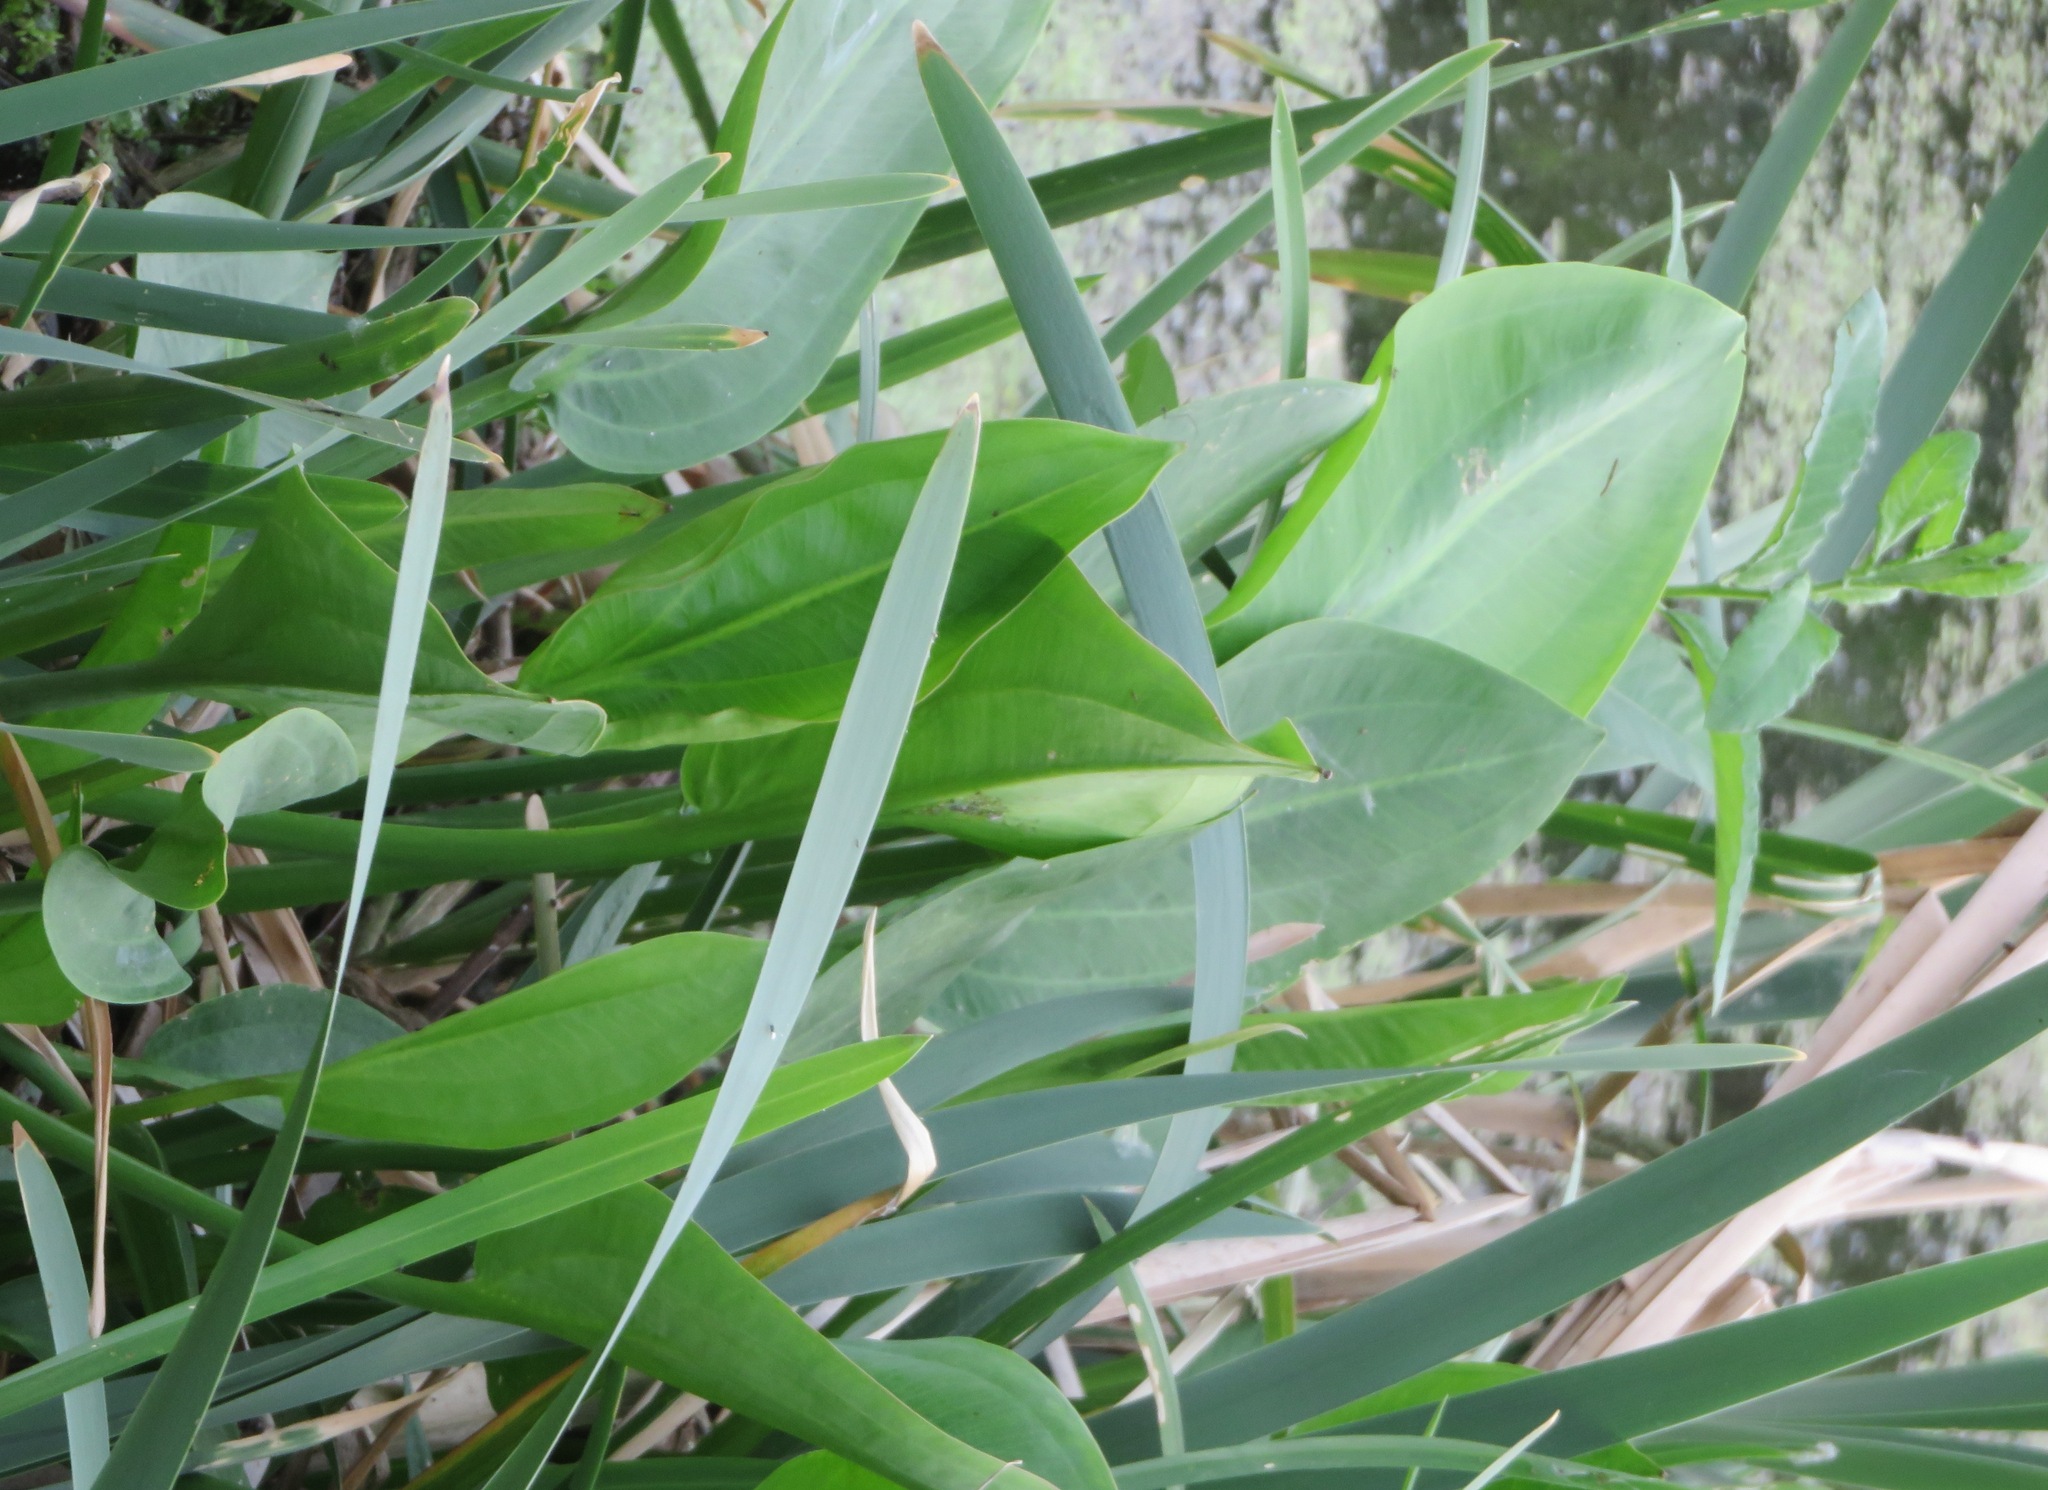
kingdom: Plantae
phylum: Tracheophyta
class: Liliopsida
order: Alismatales
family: Alismataceae
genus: Alisma
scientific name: Alisma plantago-aquatica
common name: Water-plantain
